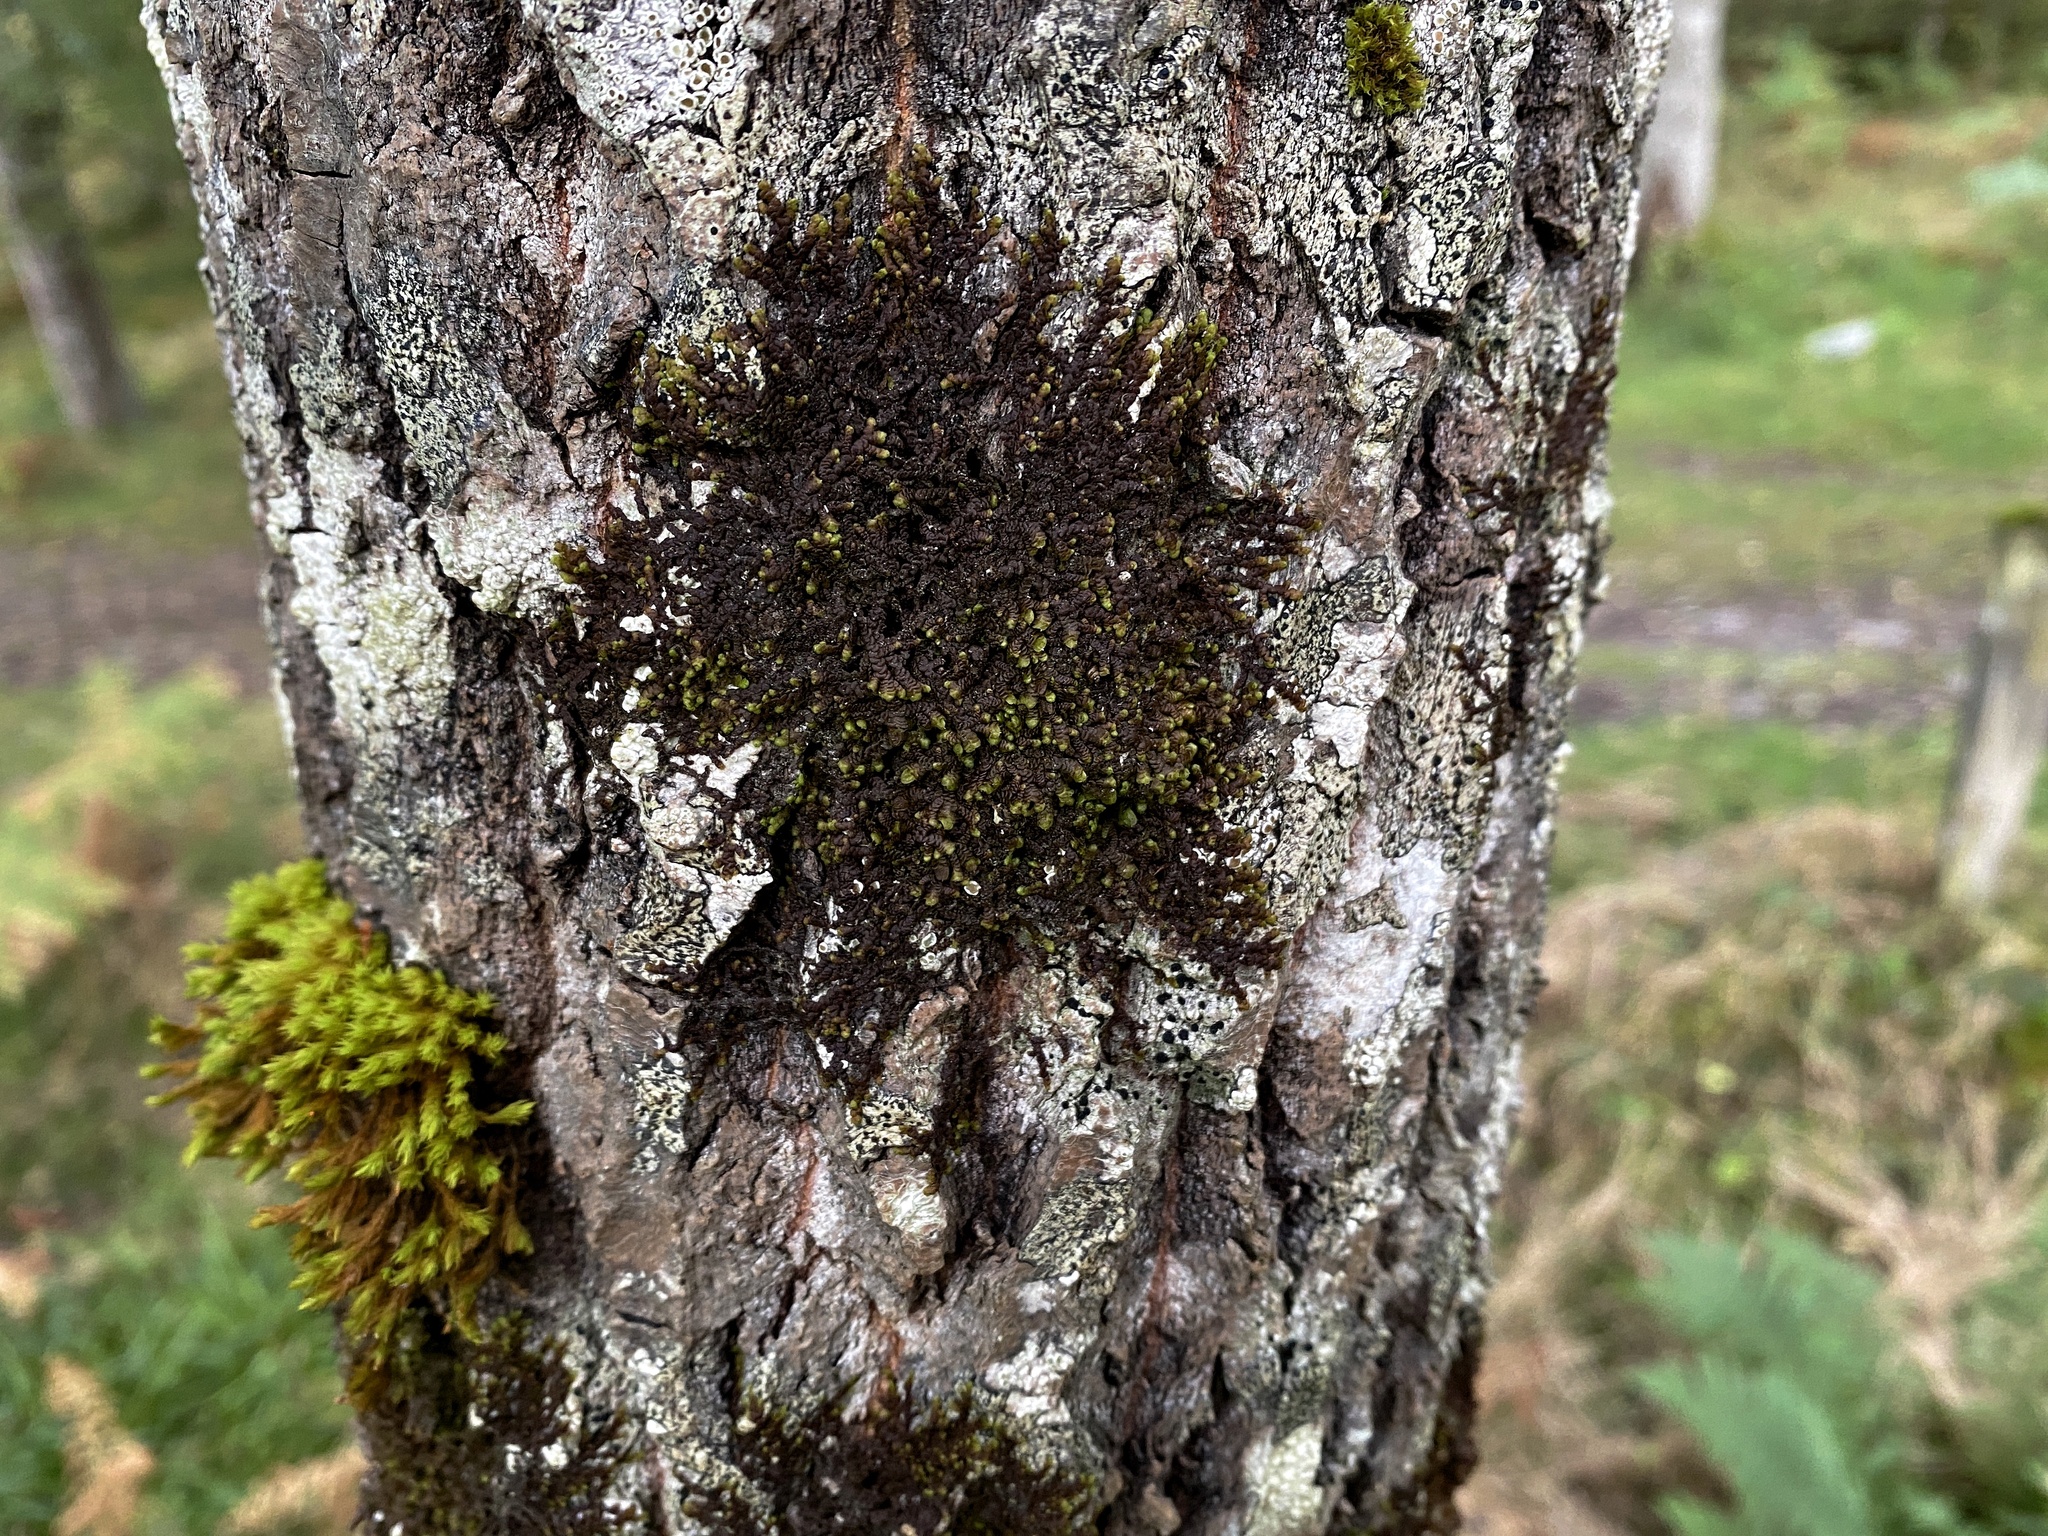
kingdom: Plantae
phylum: Marchantiophyta
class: Jungermanniopsida
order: Porellales
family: Frullaniaceae
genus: Frullania
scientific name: Frullania dilatata
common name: Dilated scalewort
